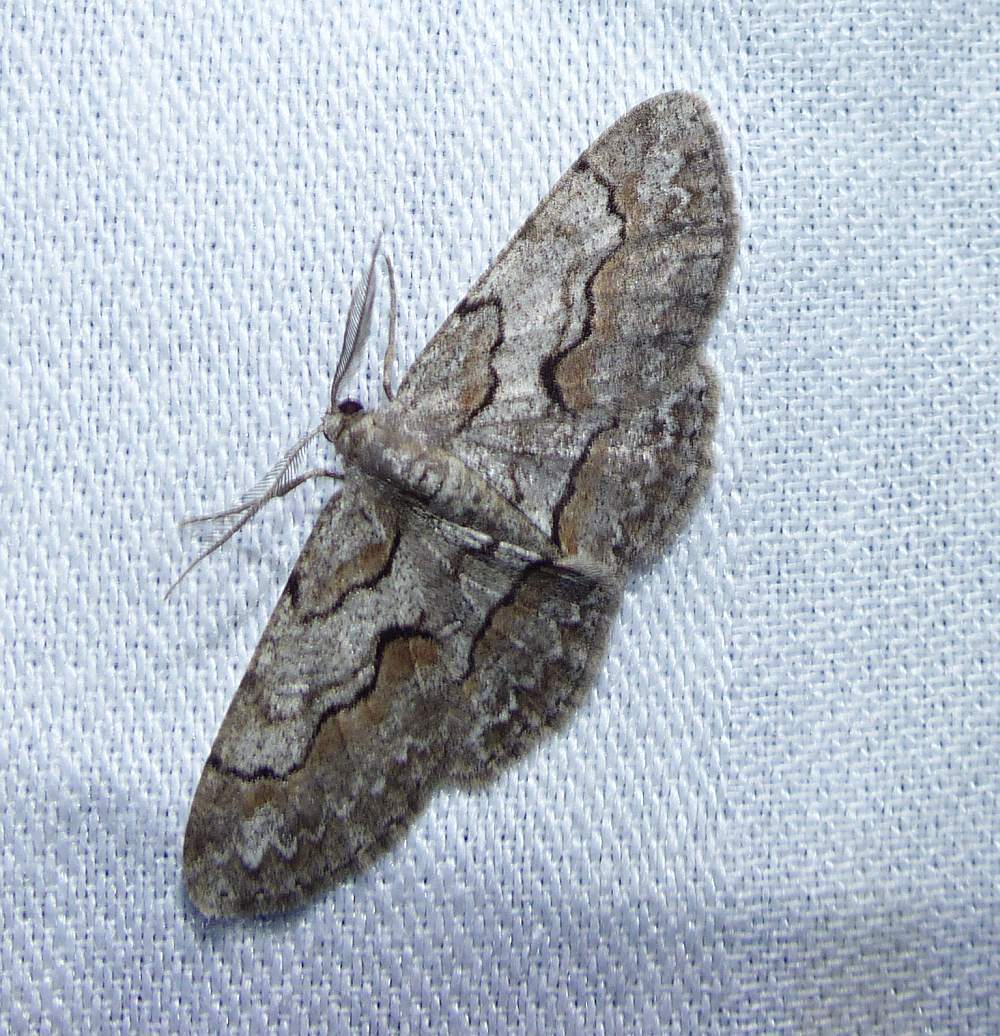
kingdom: Animalia
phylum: Arthropoda
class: Insecta
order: Lepidoptera
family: Geometridae
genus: Iridopsis
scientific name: Iridopsis vellivolata
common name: Large purplish gray
